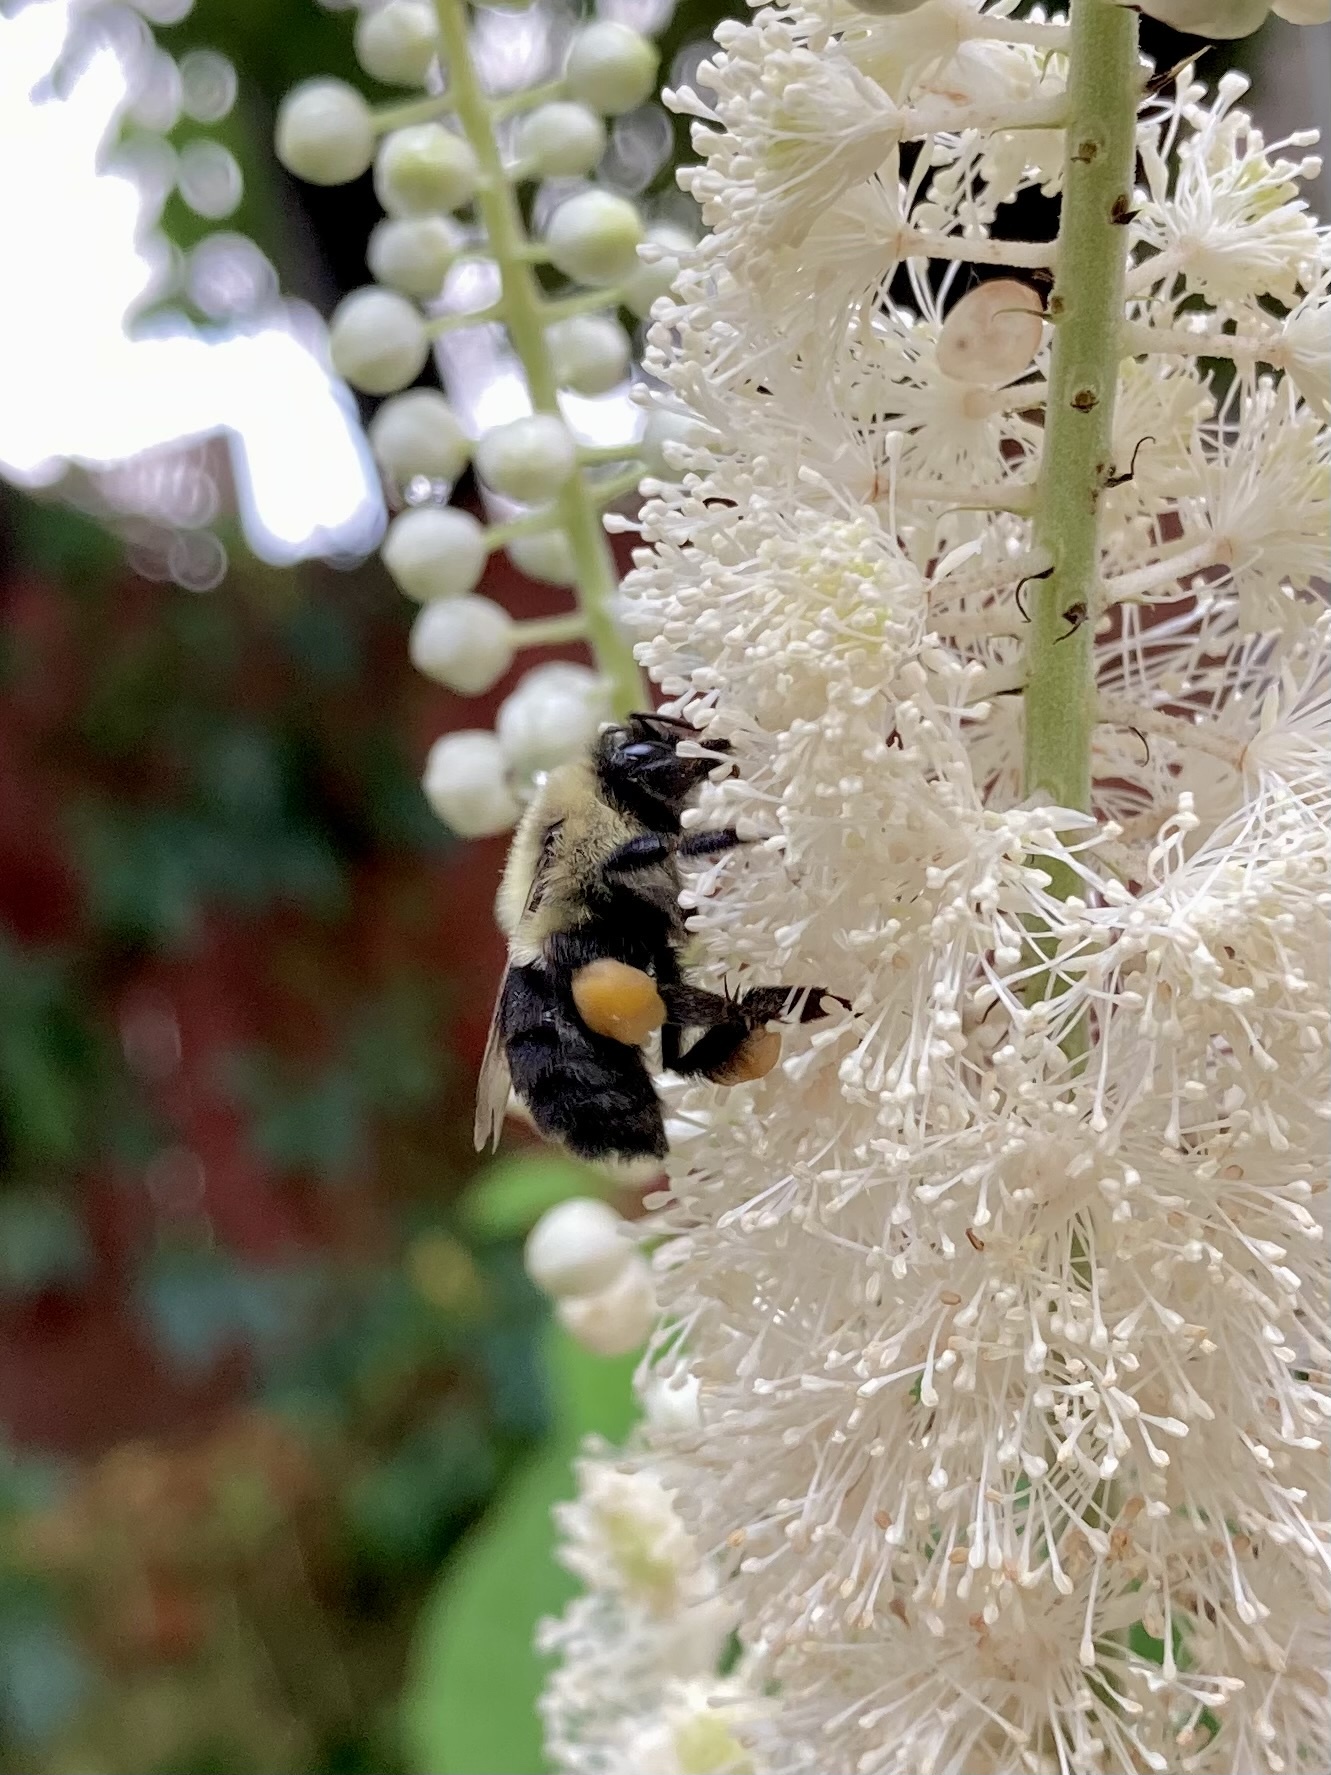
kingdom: Animalia
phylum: Arthropoda
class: Insecta
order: Hymenoptera
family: Apidae
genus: Bombus
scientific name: Bombus impatiens
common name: Common eastern bumble bee
